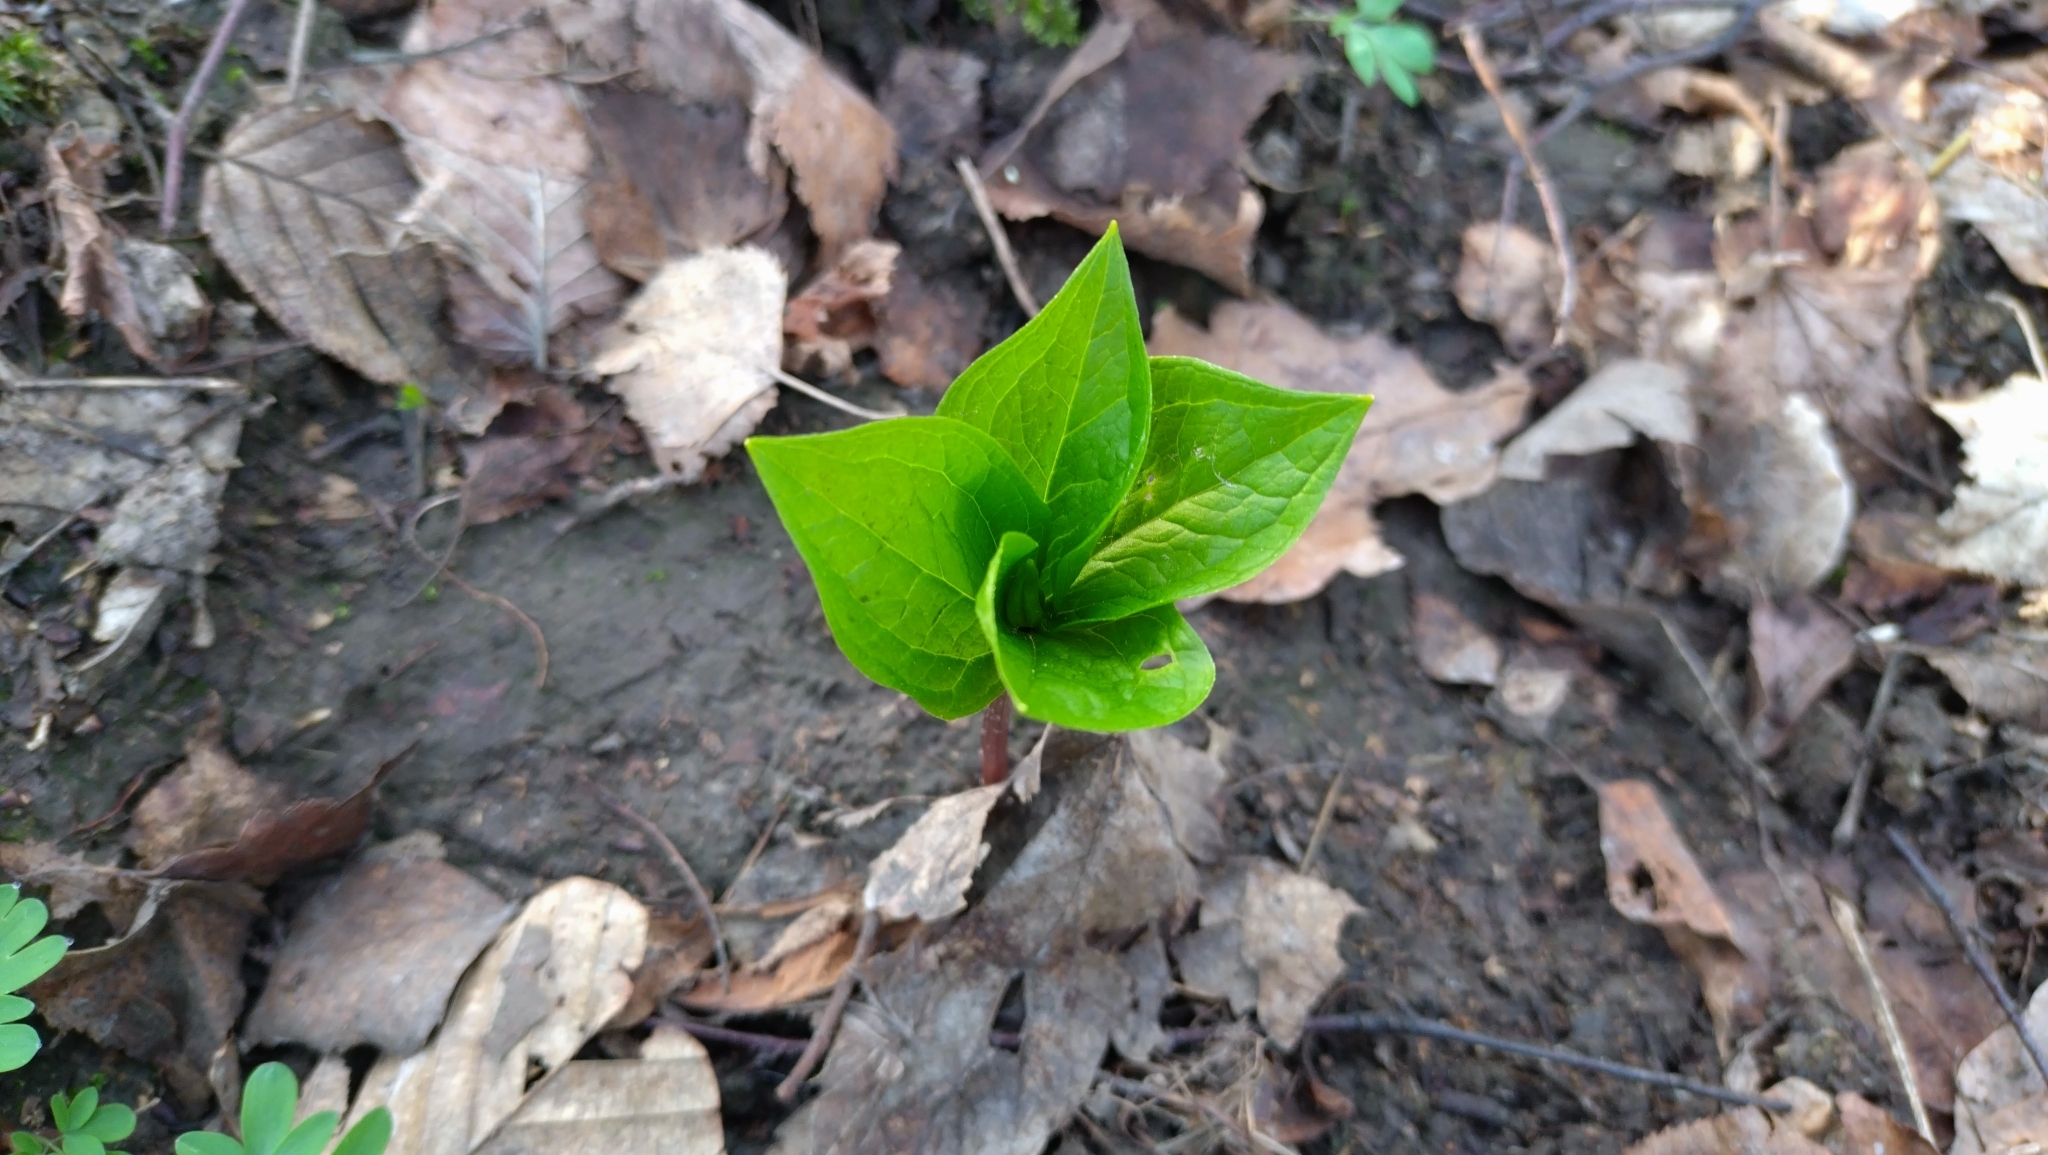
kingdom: Plantae
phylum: Tracheophyta
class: Liliopsida
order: Liliales
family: Melanthiaceae
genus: Paris
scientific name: Paris quadrifolia
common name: Herb-paris
